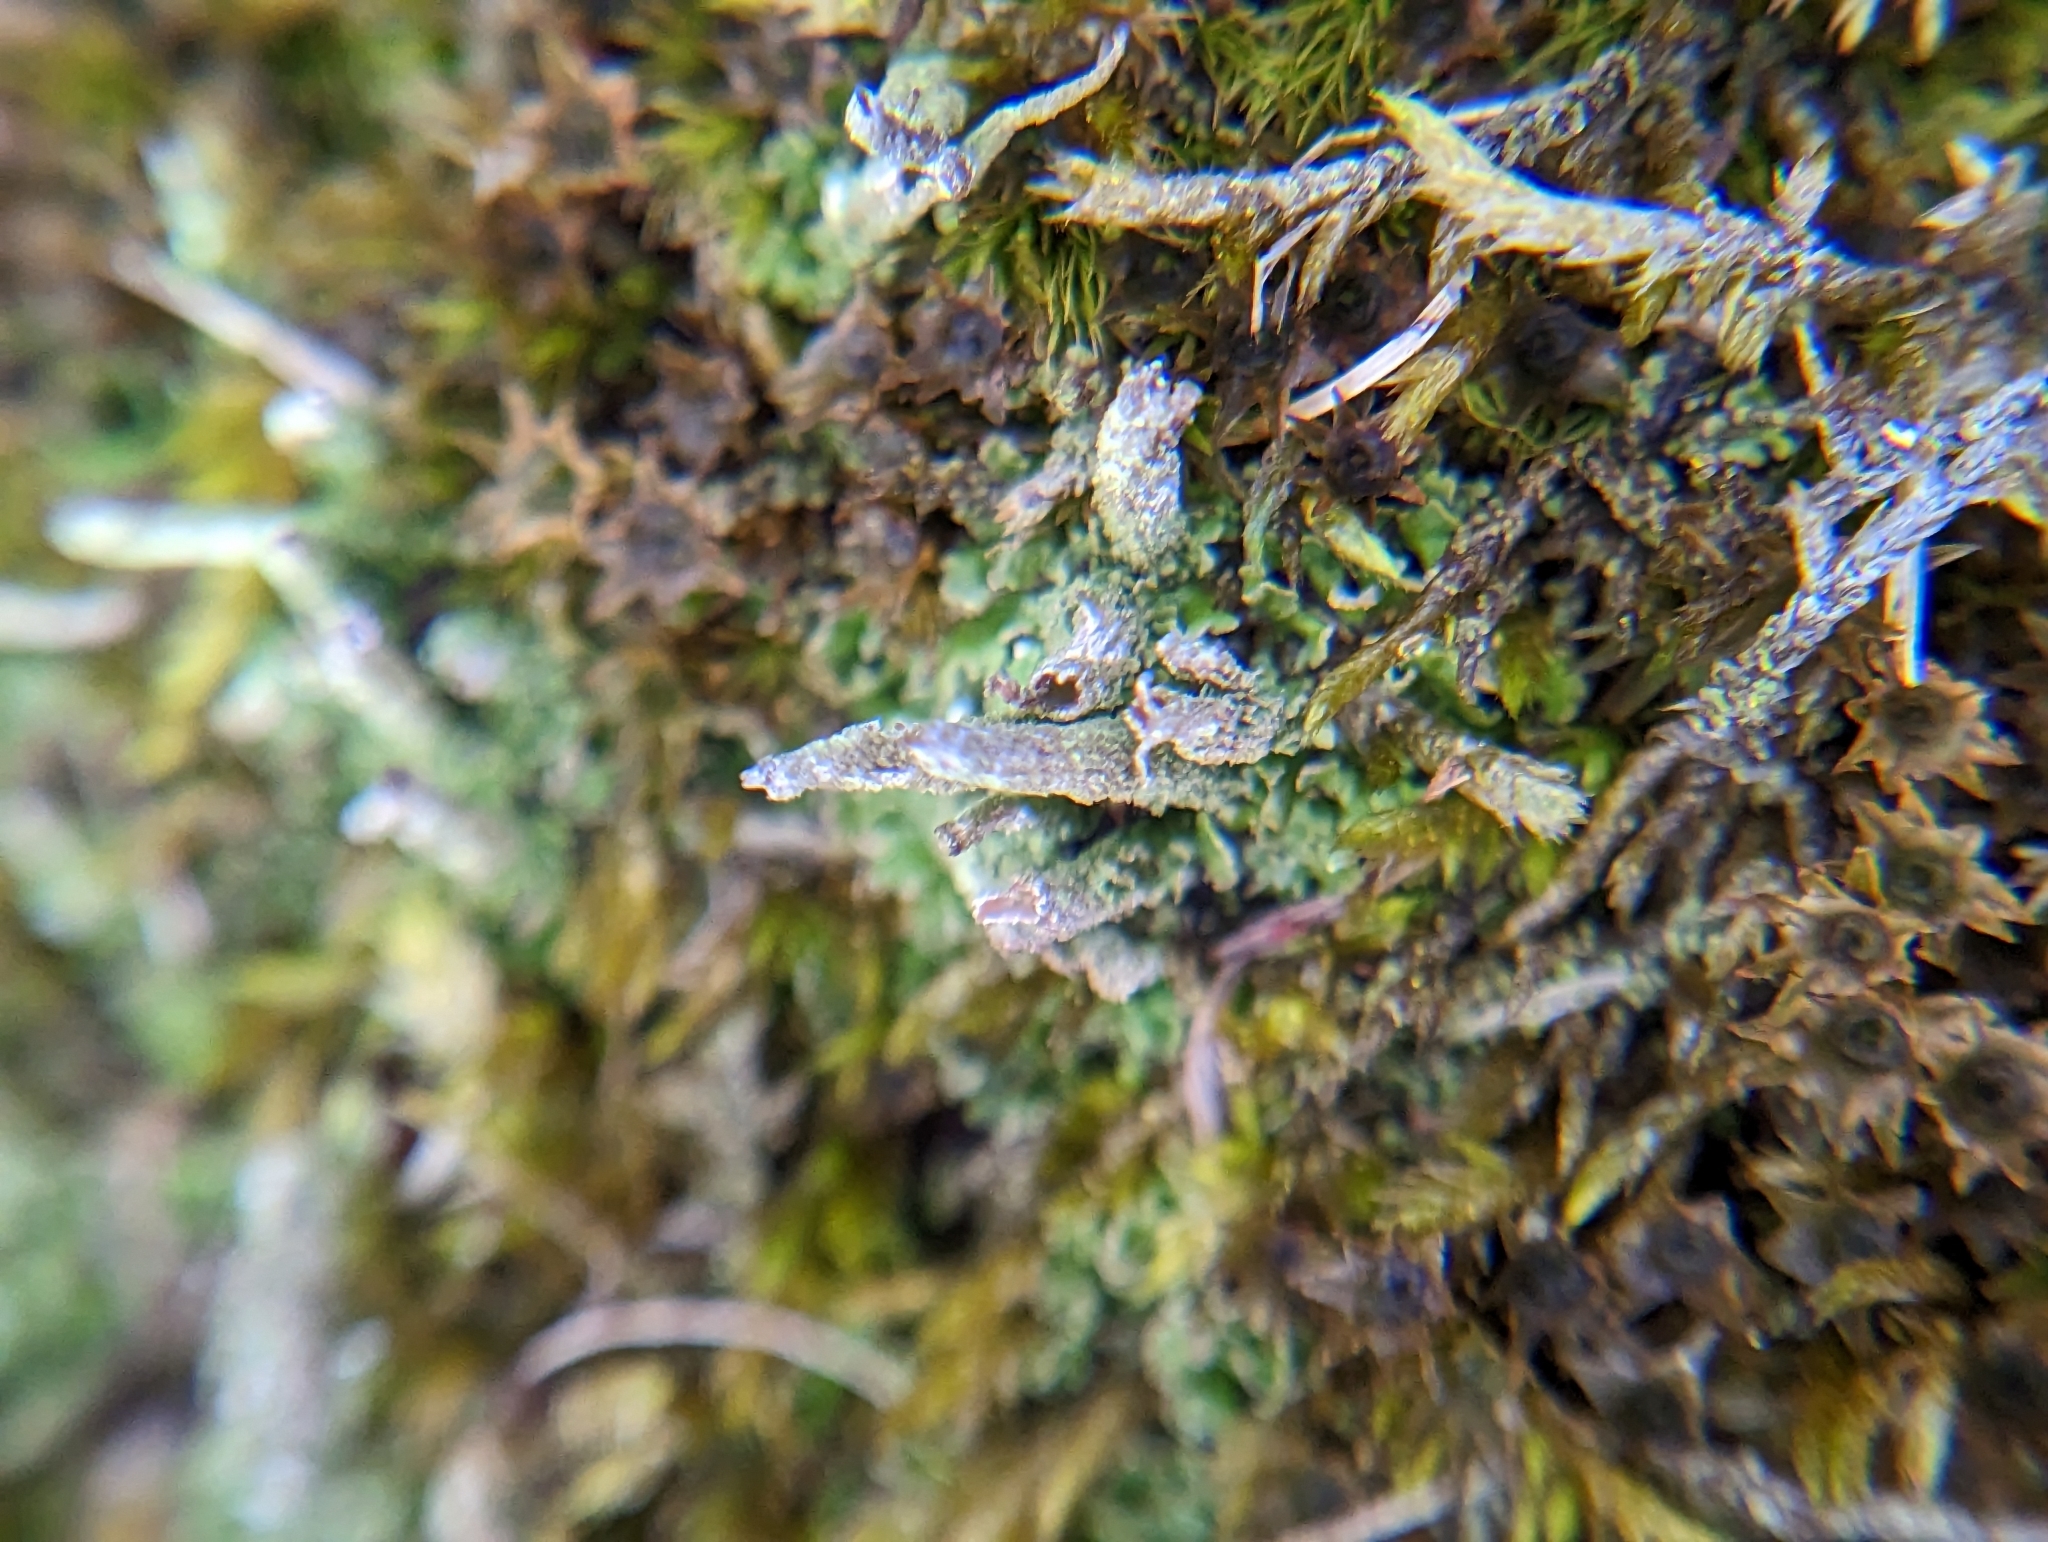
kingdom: Fungi
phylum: Ascomycota
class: Lecanoromycetes
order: Lecanorales
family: Cladoniaceae
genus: Cladonia
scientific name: Cladonia coniocraea
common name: Common powderhorn
